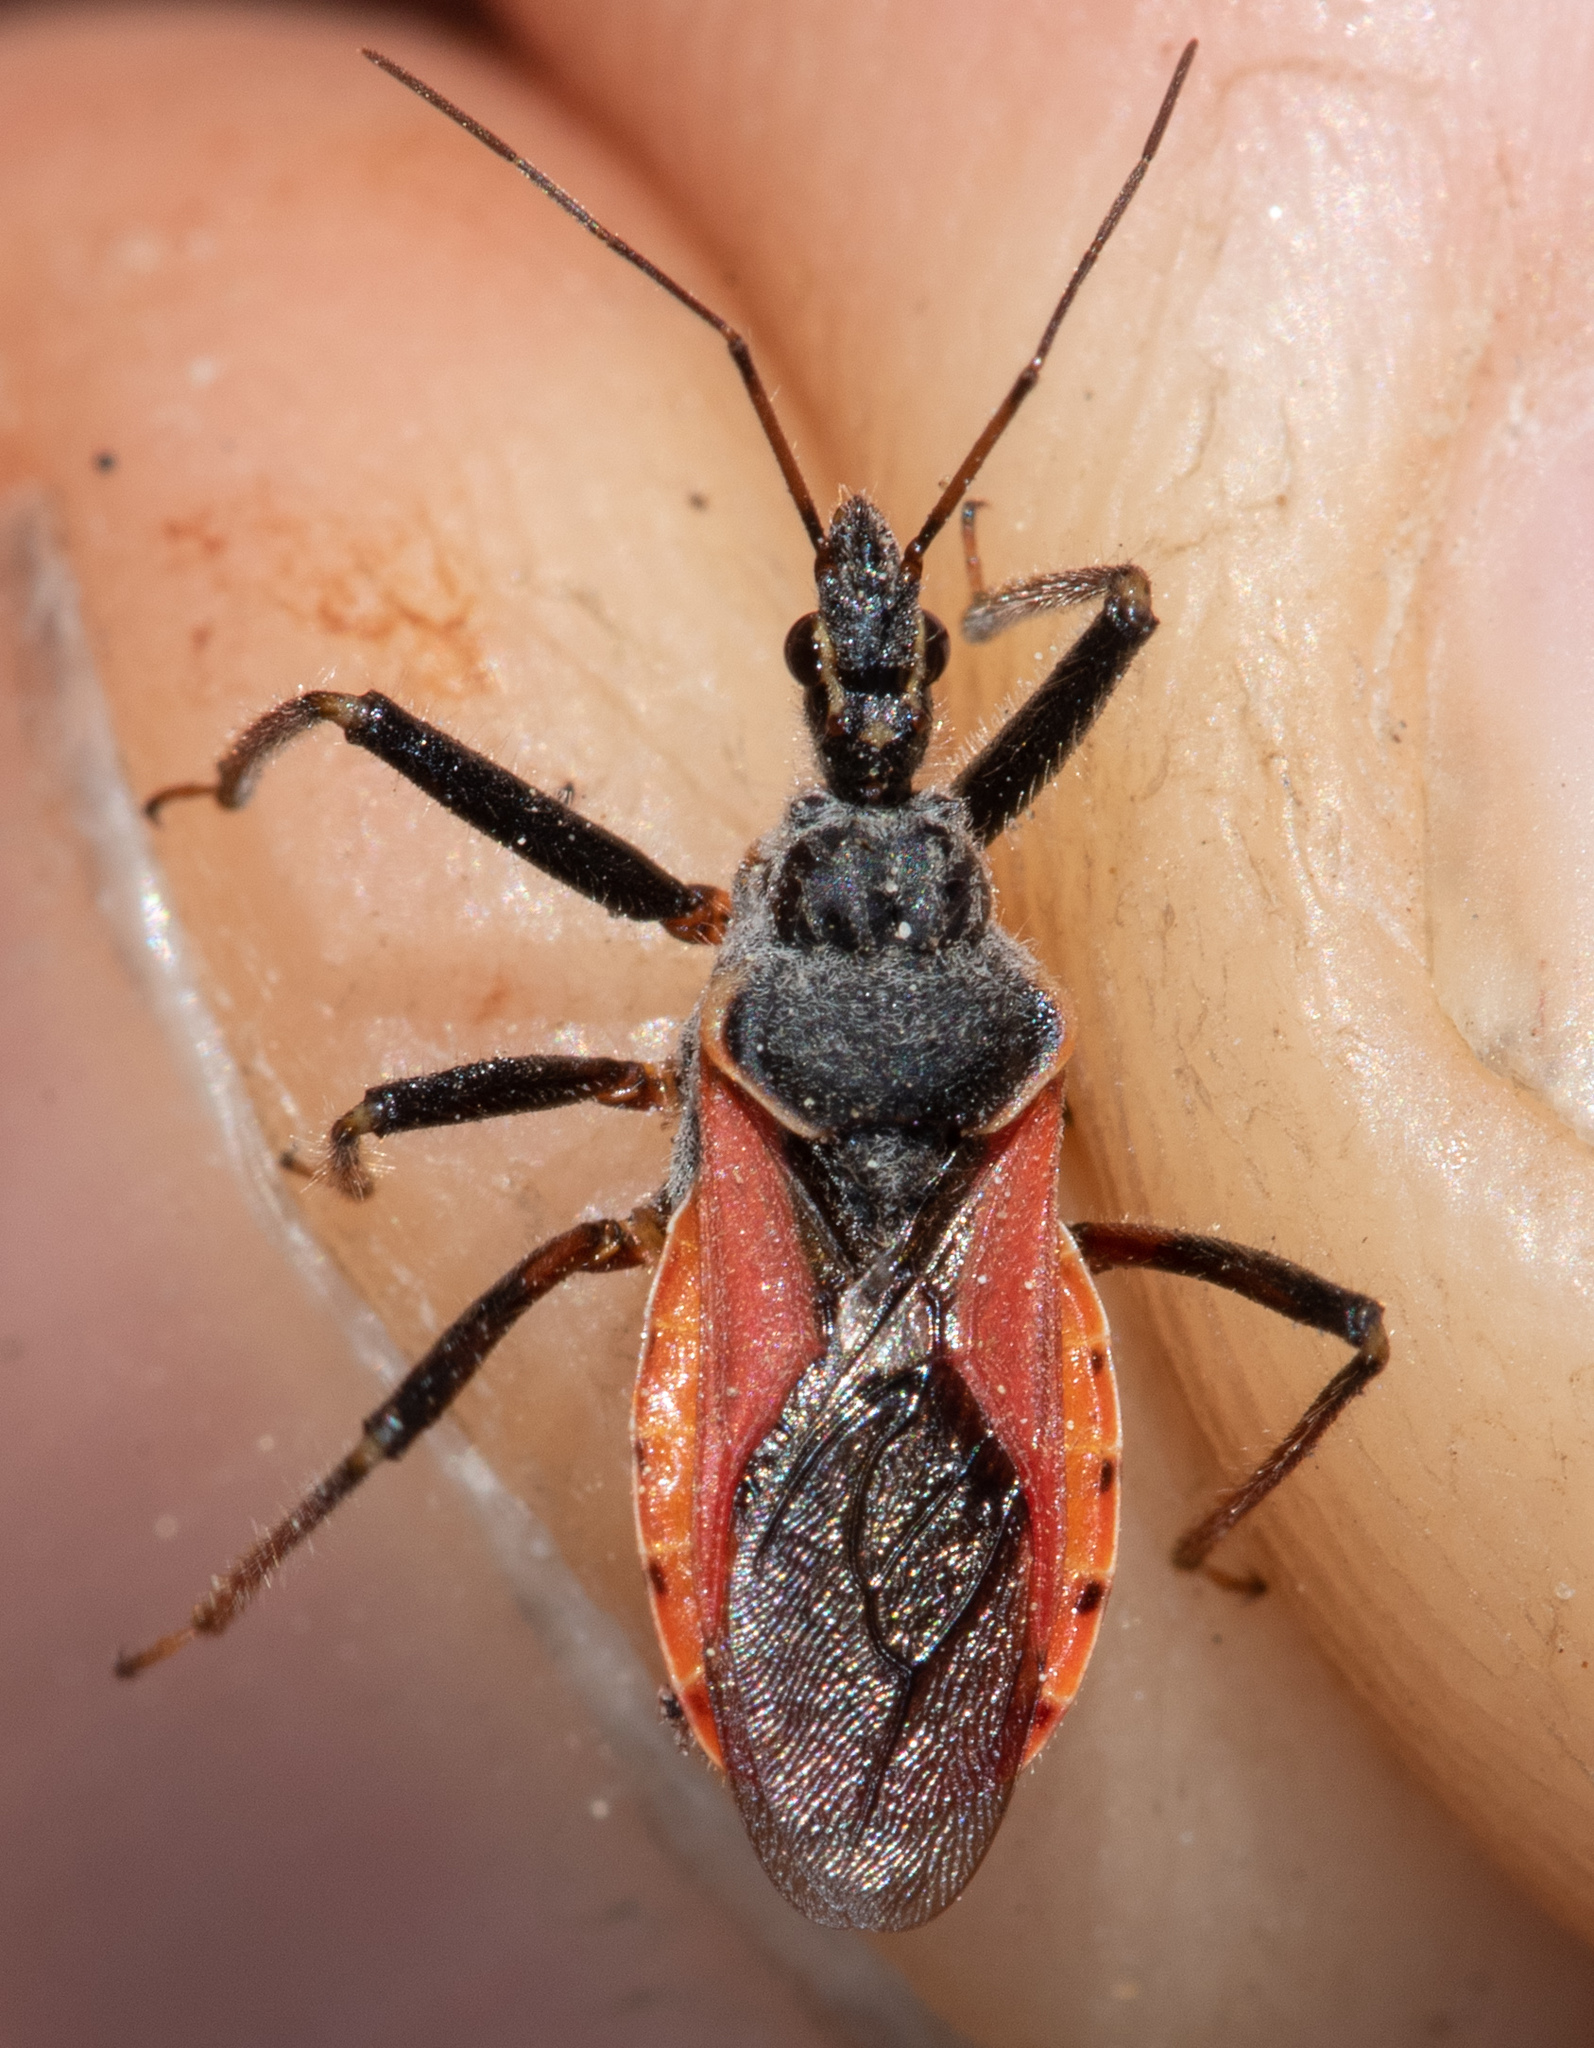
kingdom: Animalia
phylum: Arthropoda
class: Insecta
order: Hemiptera
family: Reduviidae
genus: Rhynocoris
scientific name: Rhynocoris ventralis
